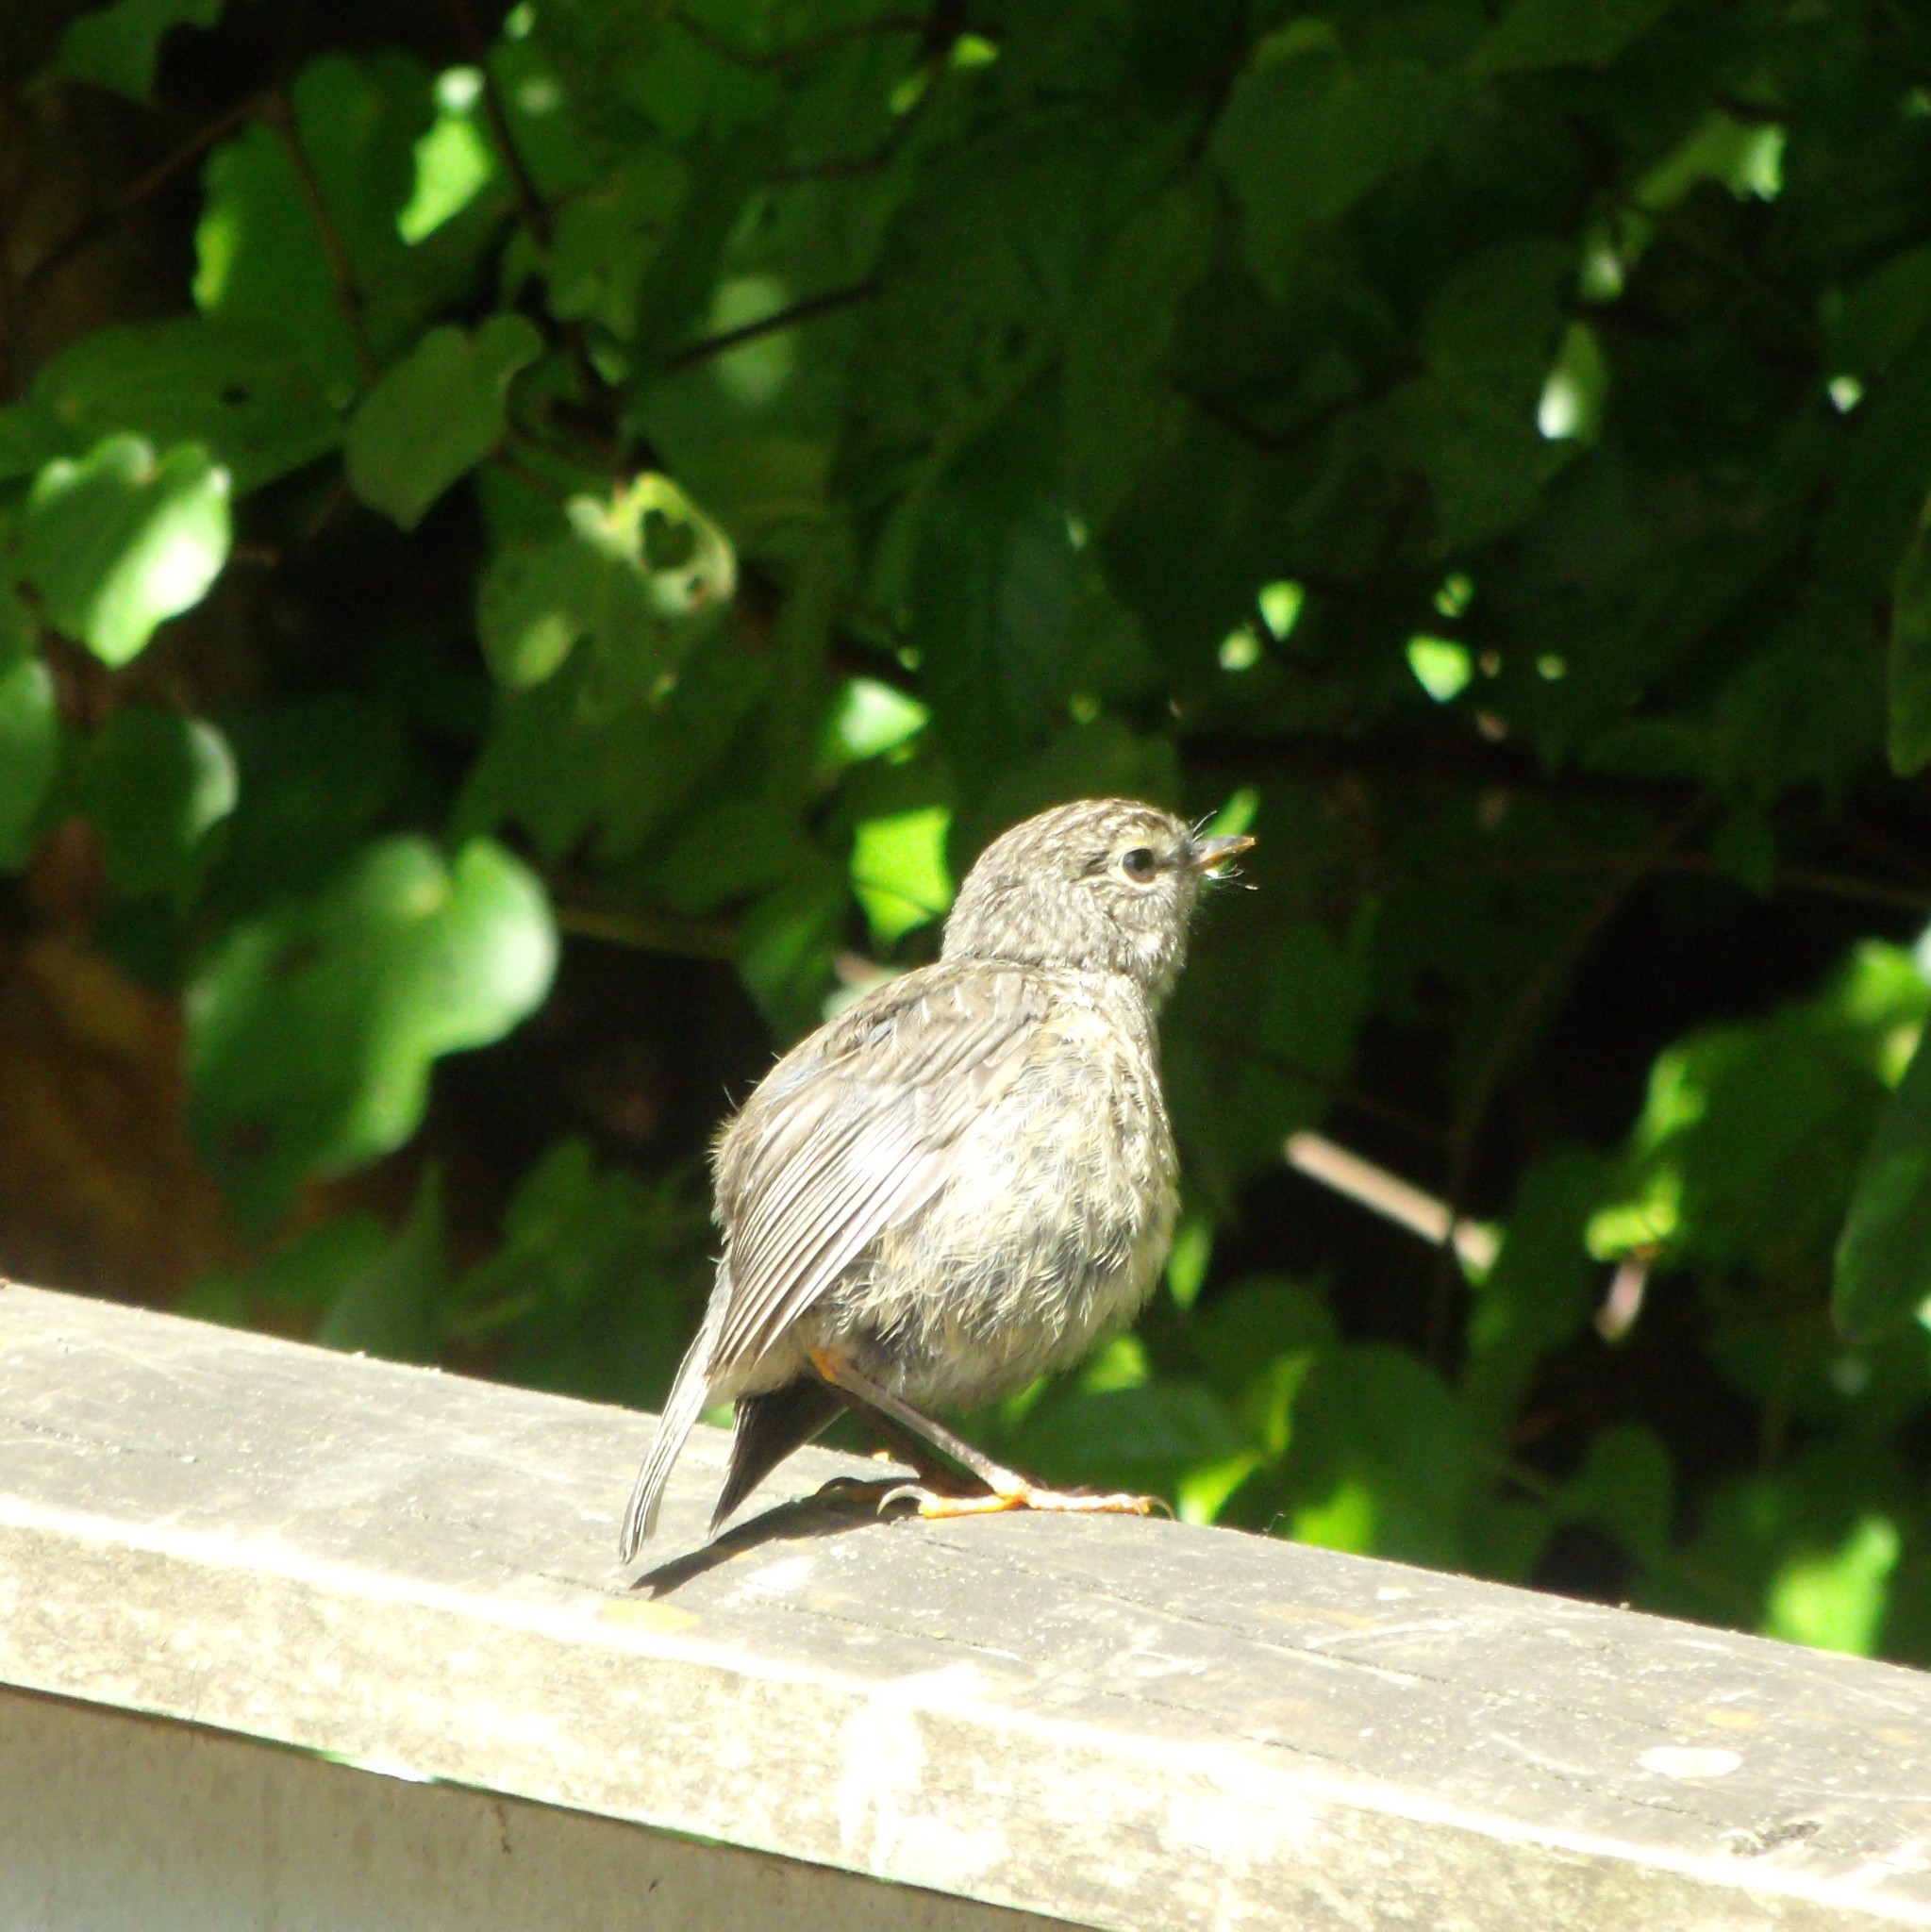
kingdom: Animalia
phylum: Chordata
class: Aves
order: Passeriformes
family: Petroicidae
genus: Petroica
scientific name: Petroica australis
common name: New zealand robin
